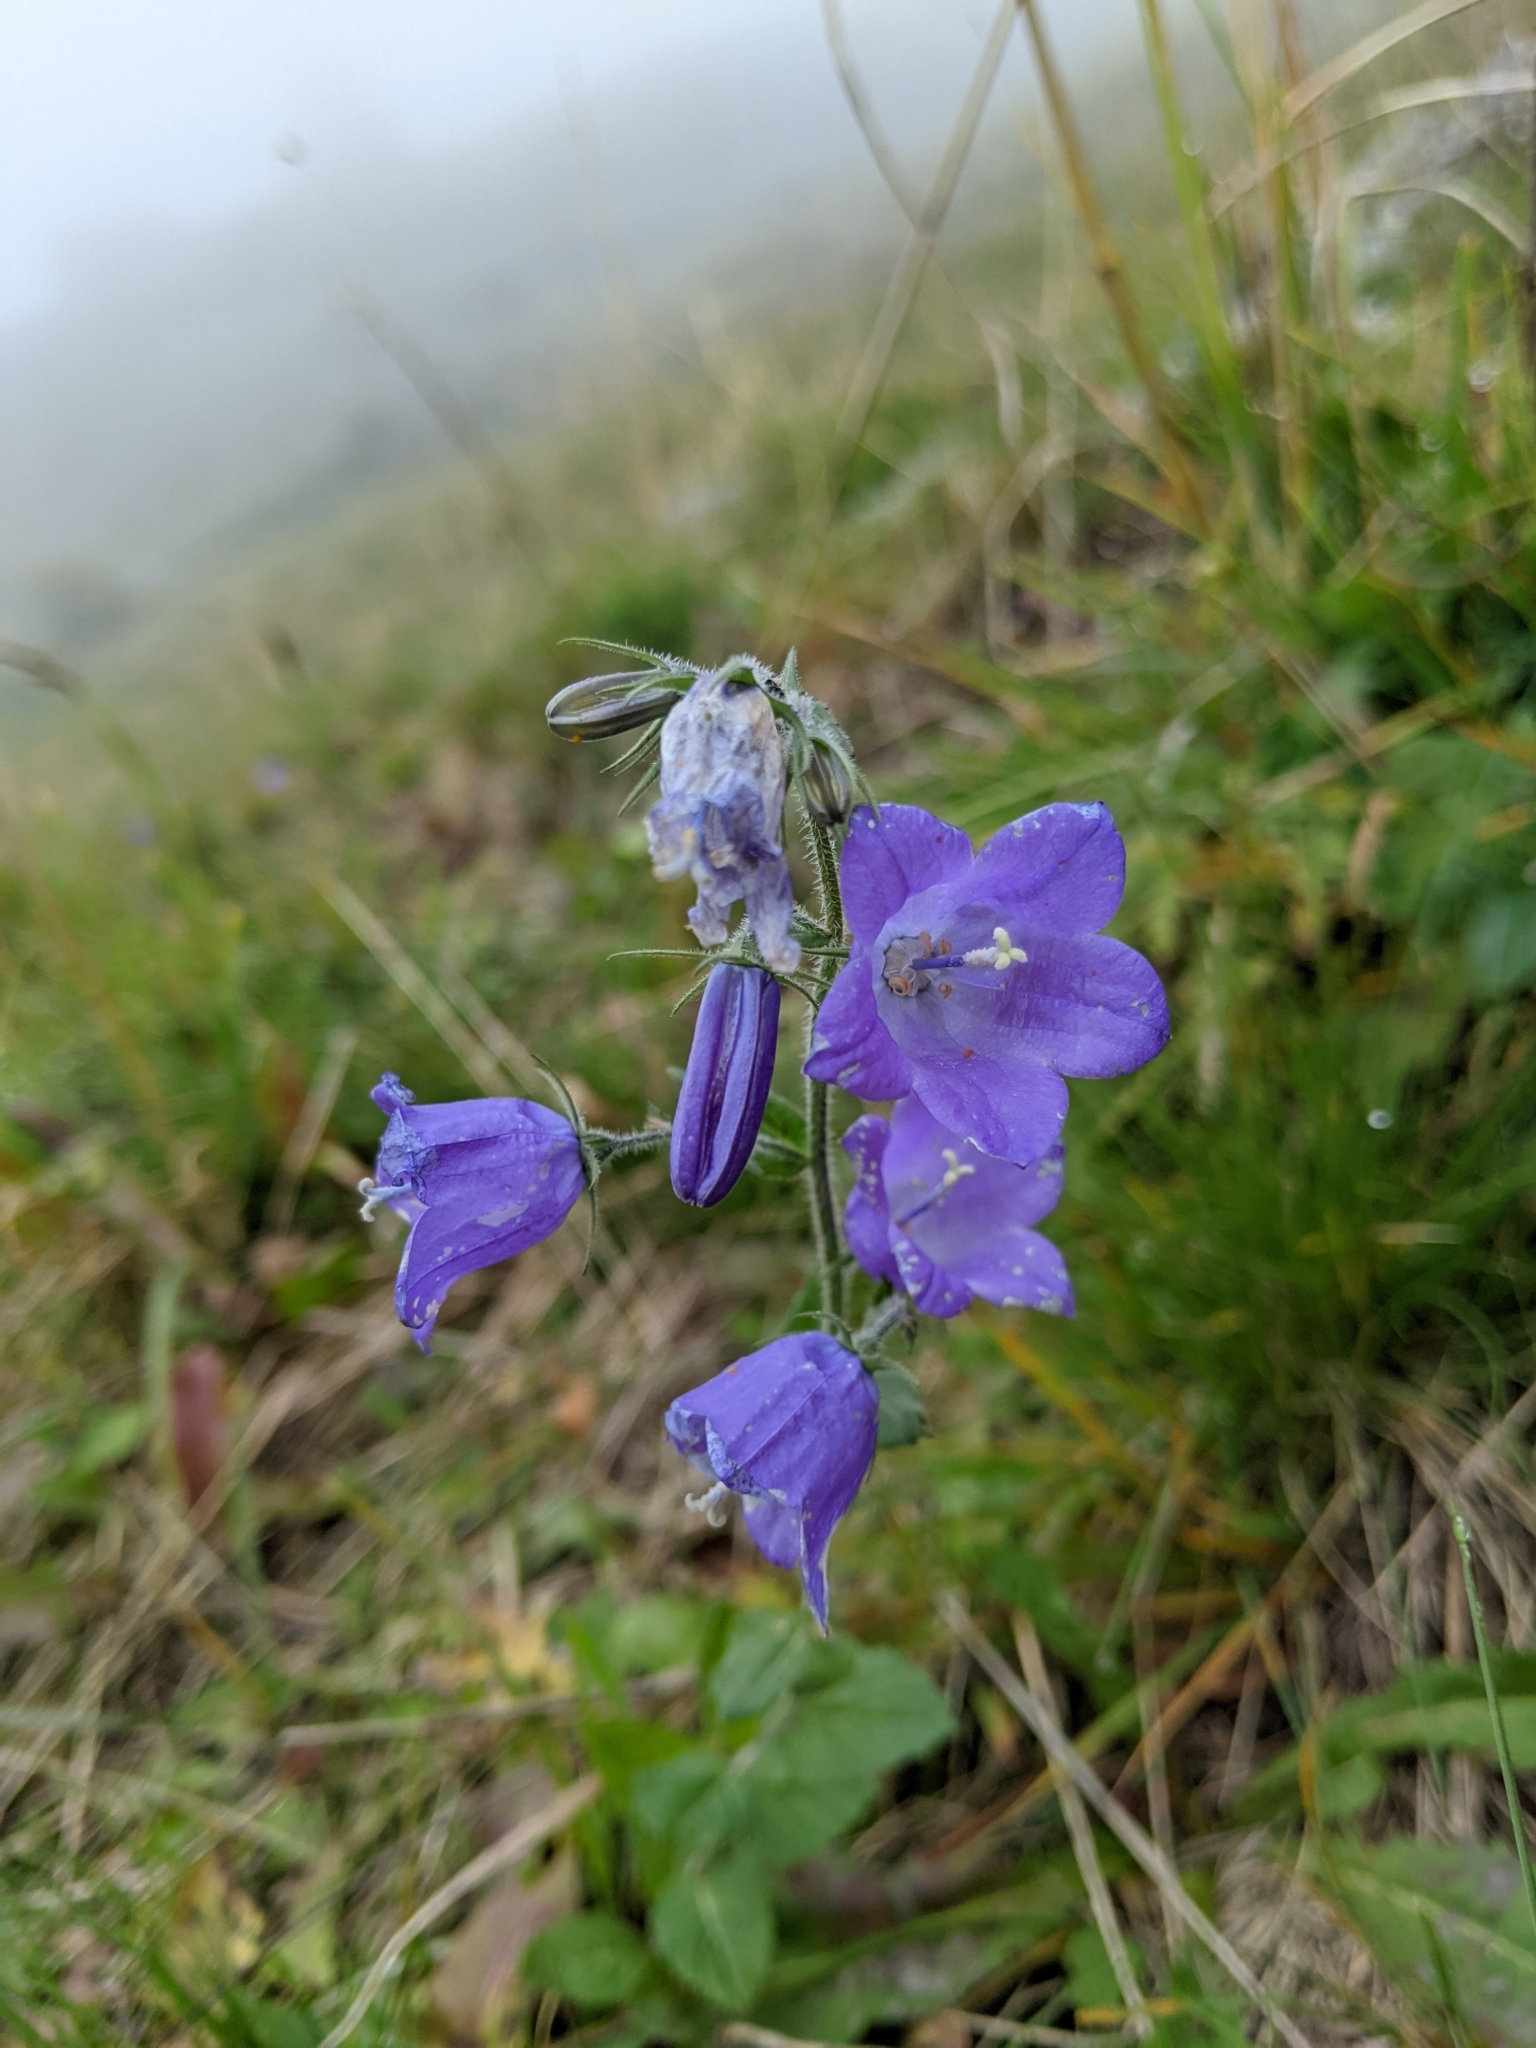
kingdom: Plantae
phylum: Tracheophyta
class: Magnoliopsida
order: Asterales
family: Campanulaceae
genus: Campanula
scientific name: Campanula rhomboidalis
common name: Broad-leaved harebell
